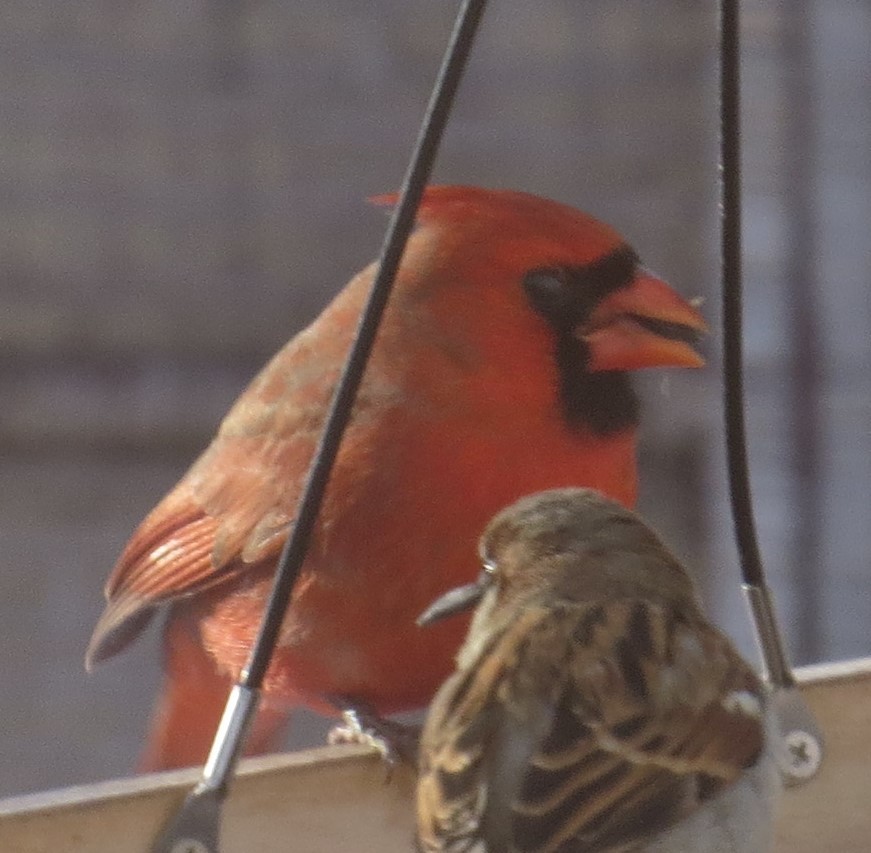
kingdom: Animalia
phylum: Chordata
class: Aves
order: Passeriformes
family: Cardinalidae
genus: Cardinalis
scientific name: Cardinalis cardinalis
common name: Northern cardinal
